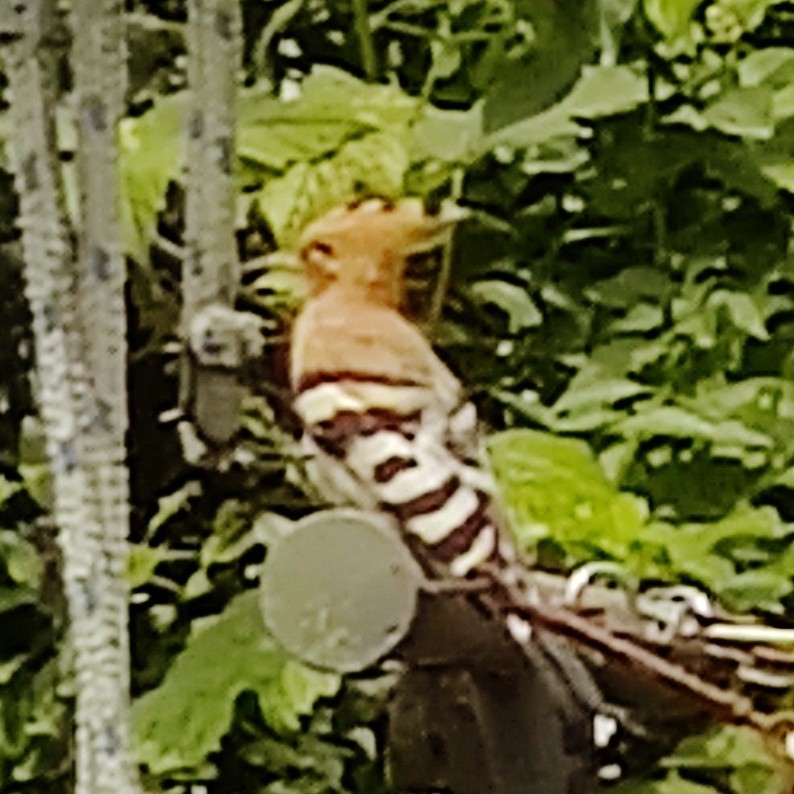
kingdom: Animalia
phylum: Chordata
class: Aves
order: Bucerotiformes
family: Upupidae
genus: Upupa
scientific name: Upupa epops
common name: Eurasian hoopoe
